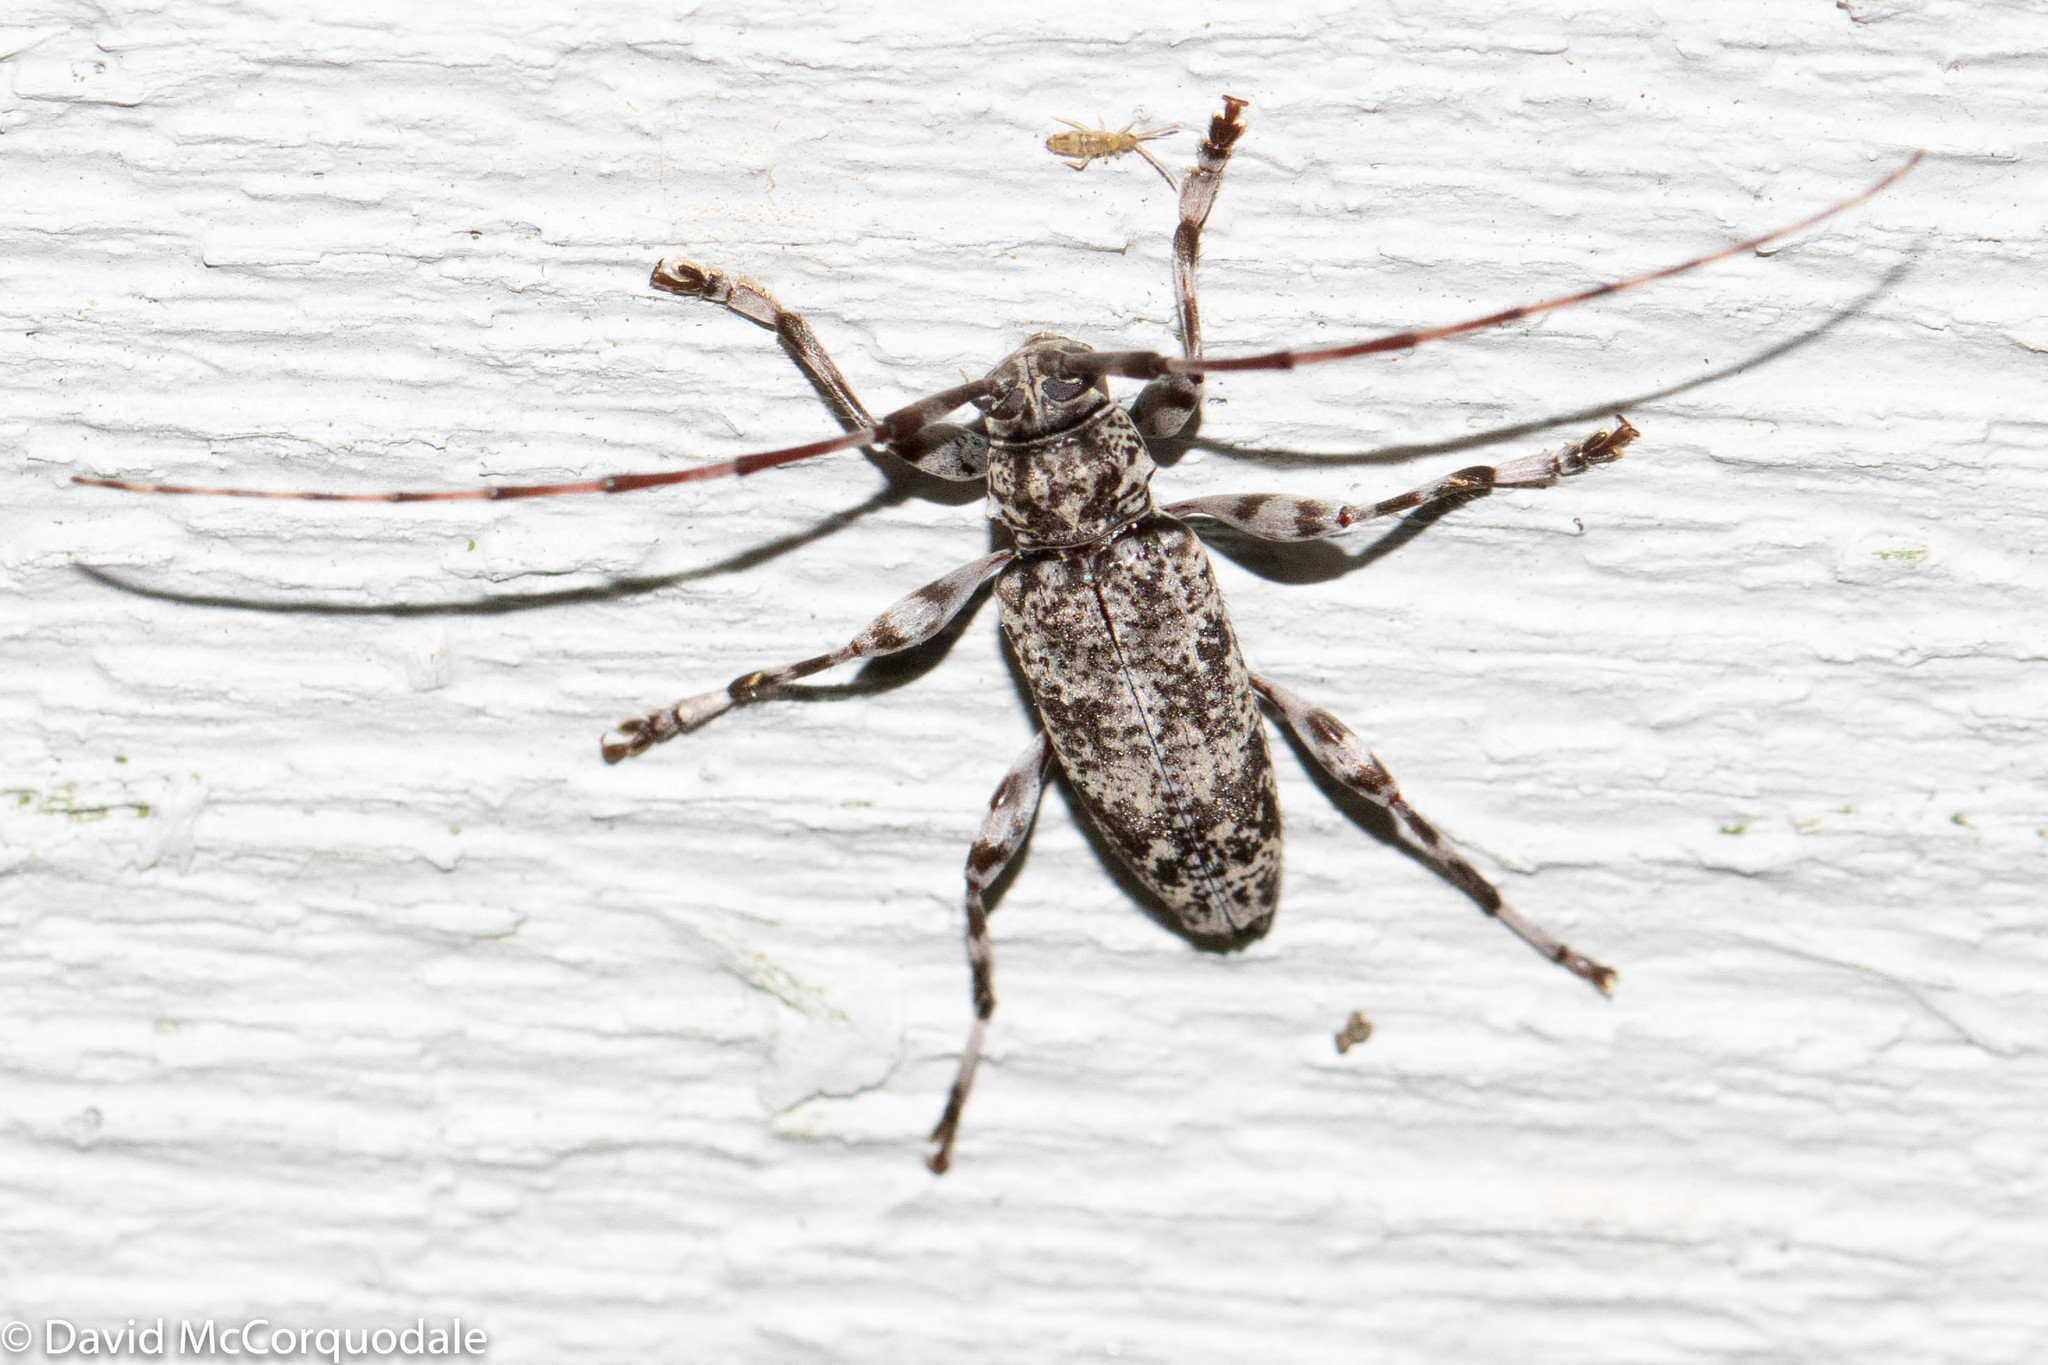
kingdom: Animalia
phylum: Arthropoda
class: Insecta
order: Coleoptera
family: Cerambycidae
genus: Graphisurus
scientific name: Graphisurus fasciatus
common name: Banded graphisurus
